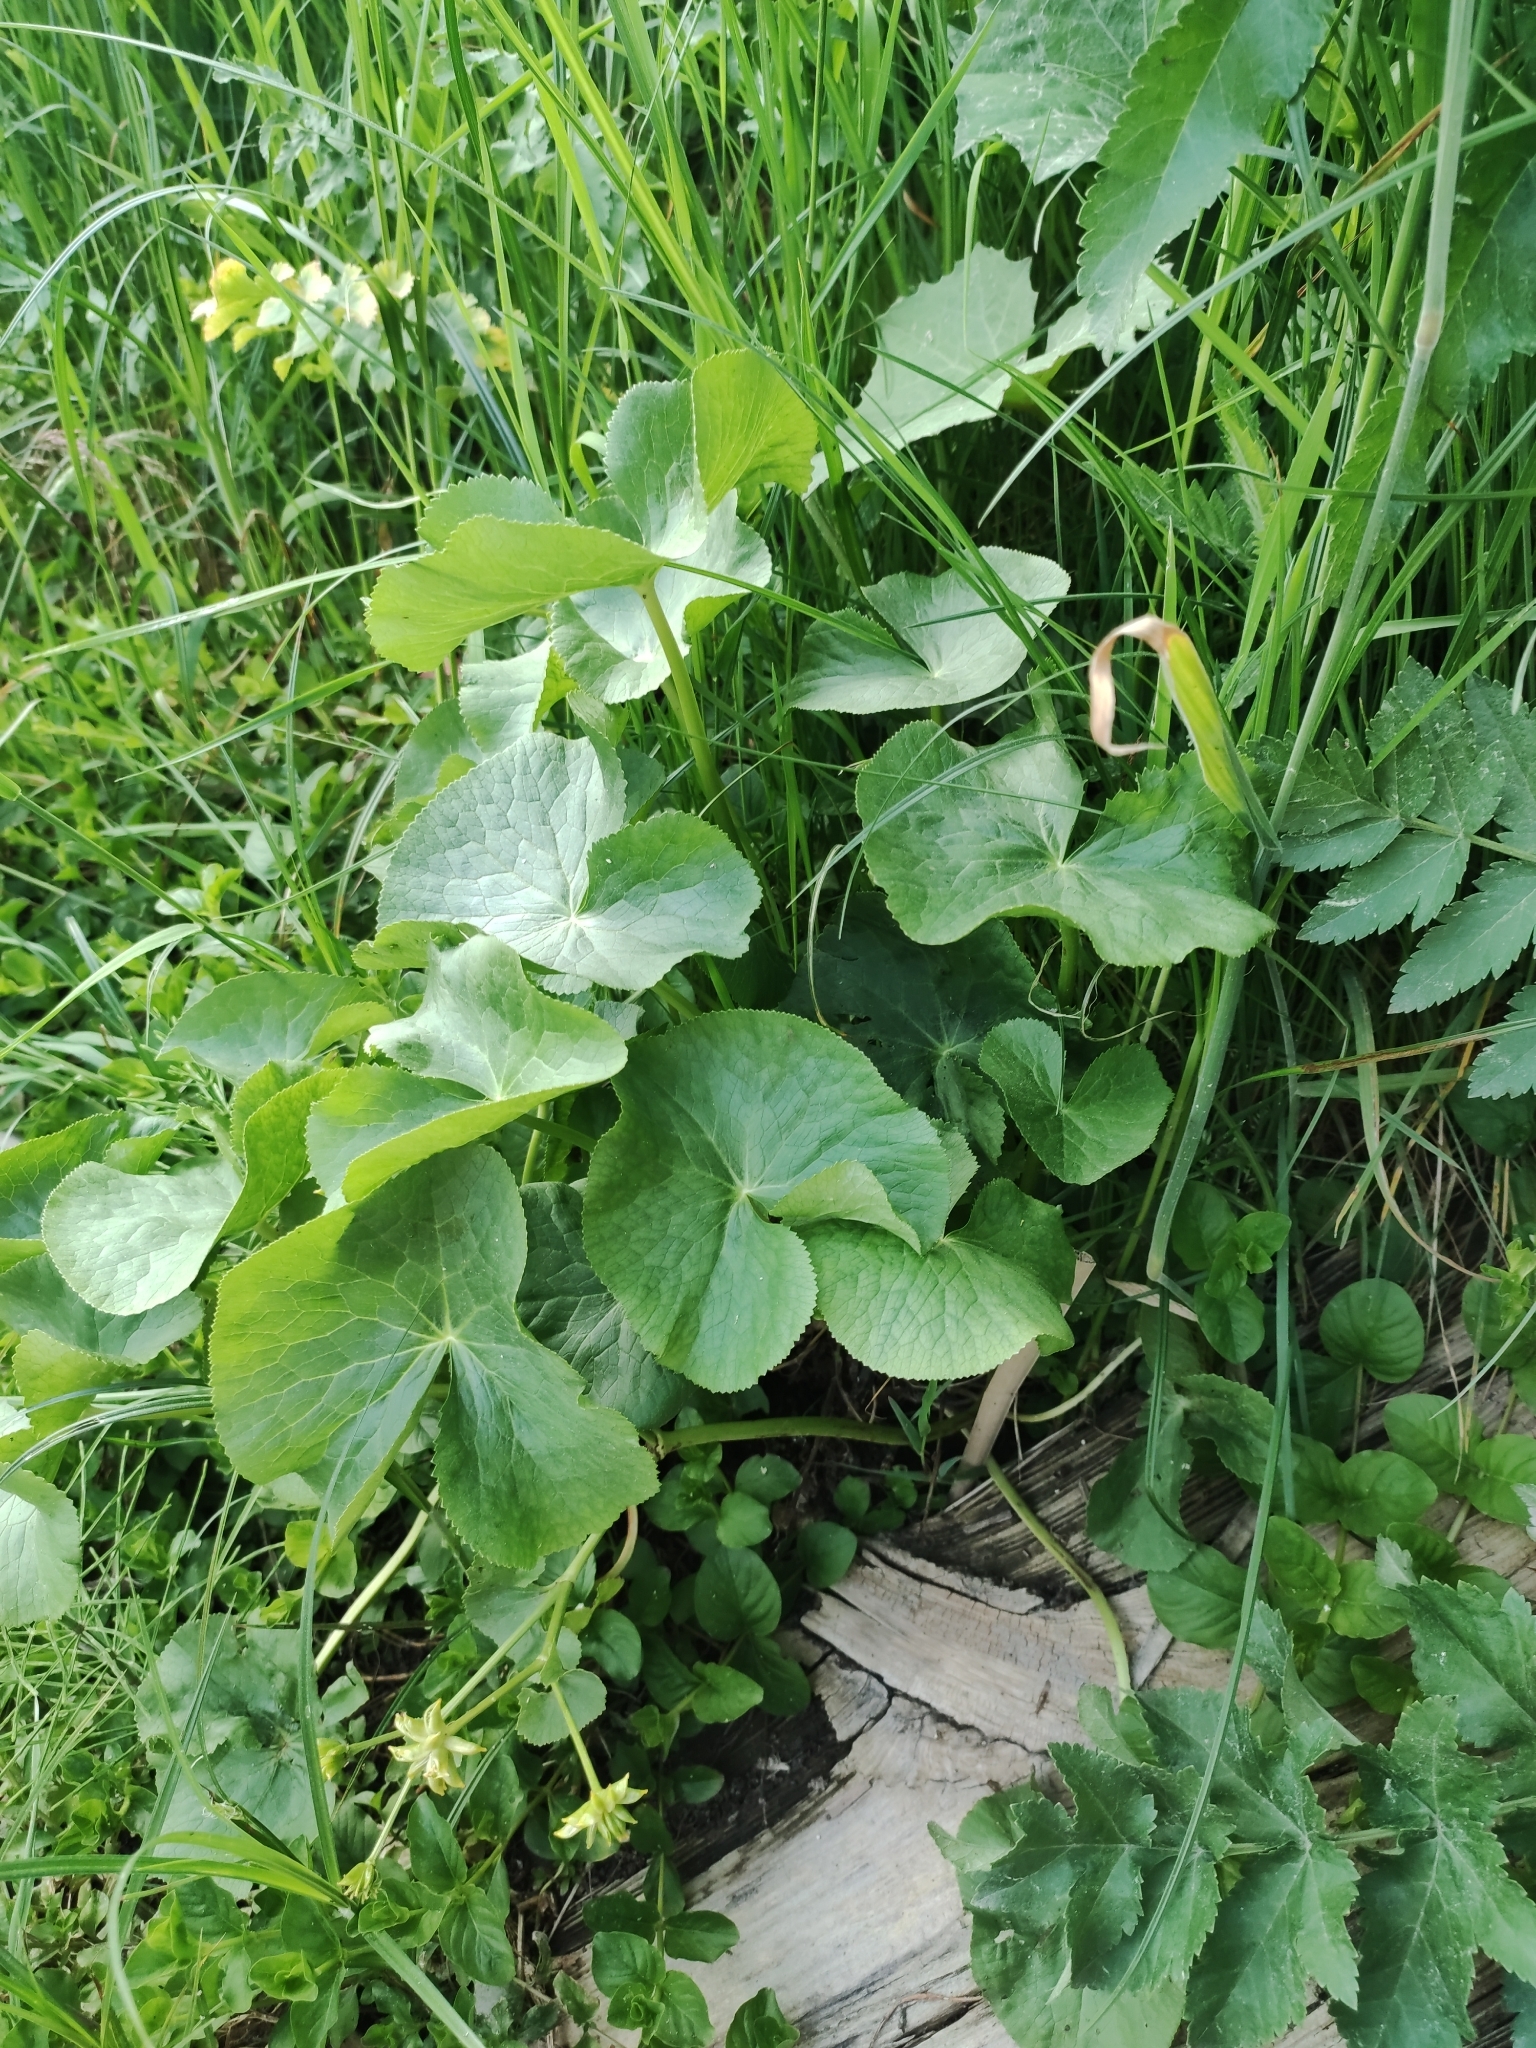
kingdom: Plantae
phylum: Tracheophyta
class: Magnoliopsida
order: Ranunculales
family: Ranunculaceae
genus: Caltha
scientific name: Caltha palustris
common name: Marsh marigold
